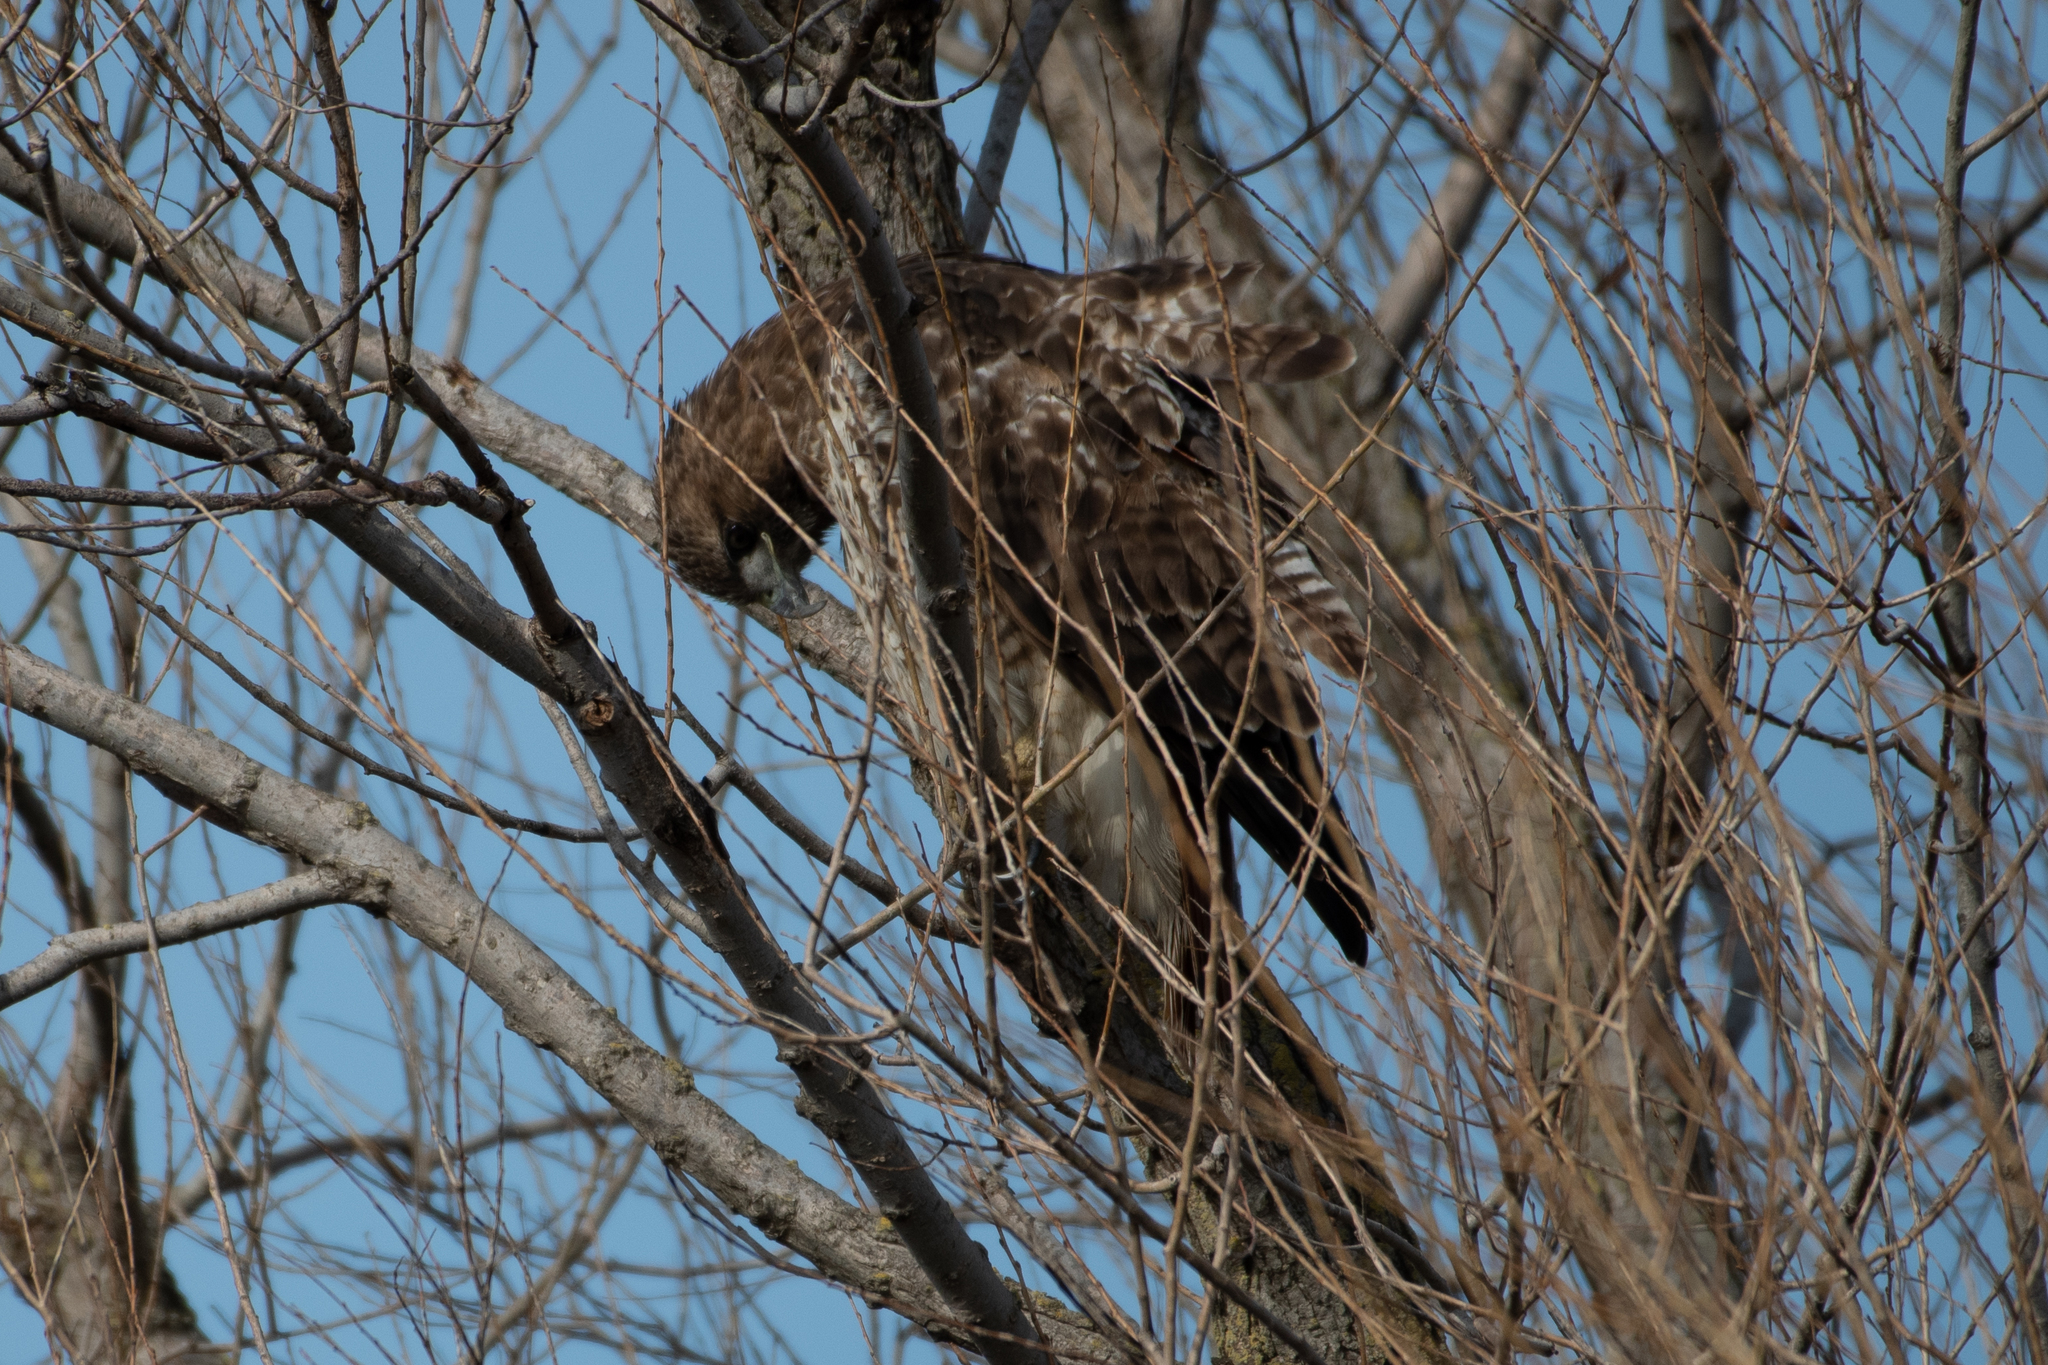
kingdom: Animalia
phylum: Chordata
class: Aves
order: Accipitriformes
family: Accipitridae
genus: Buteo
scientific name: Buteo jamaicensis
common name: Red-tailed hawk
